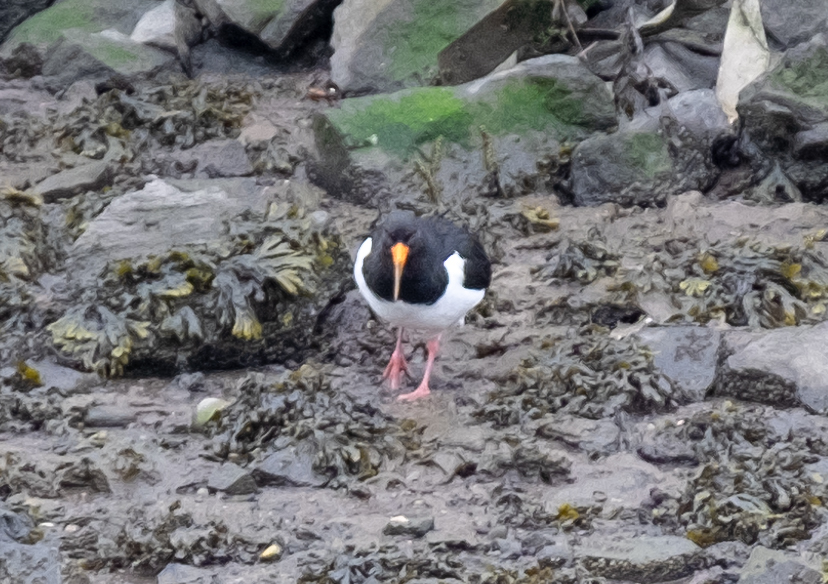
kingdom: Animalia
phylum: Chordata
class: Aves
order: Charadriiformes
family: Haematopodidae
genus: Haematopus
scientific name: Haematopus ostralegus
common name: Eurasian oystercatcher
